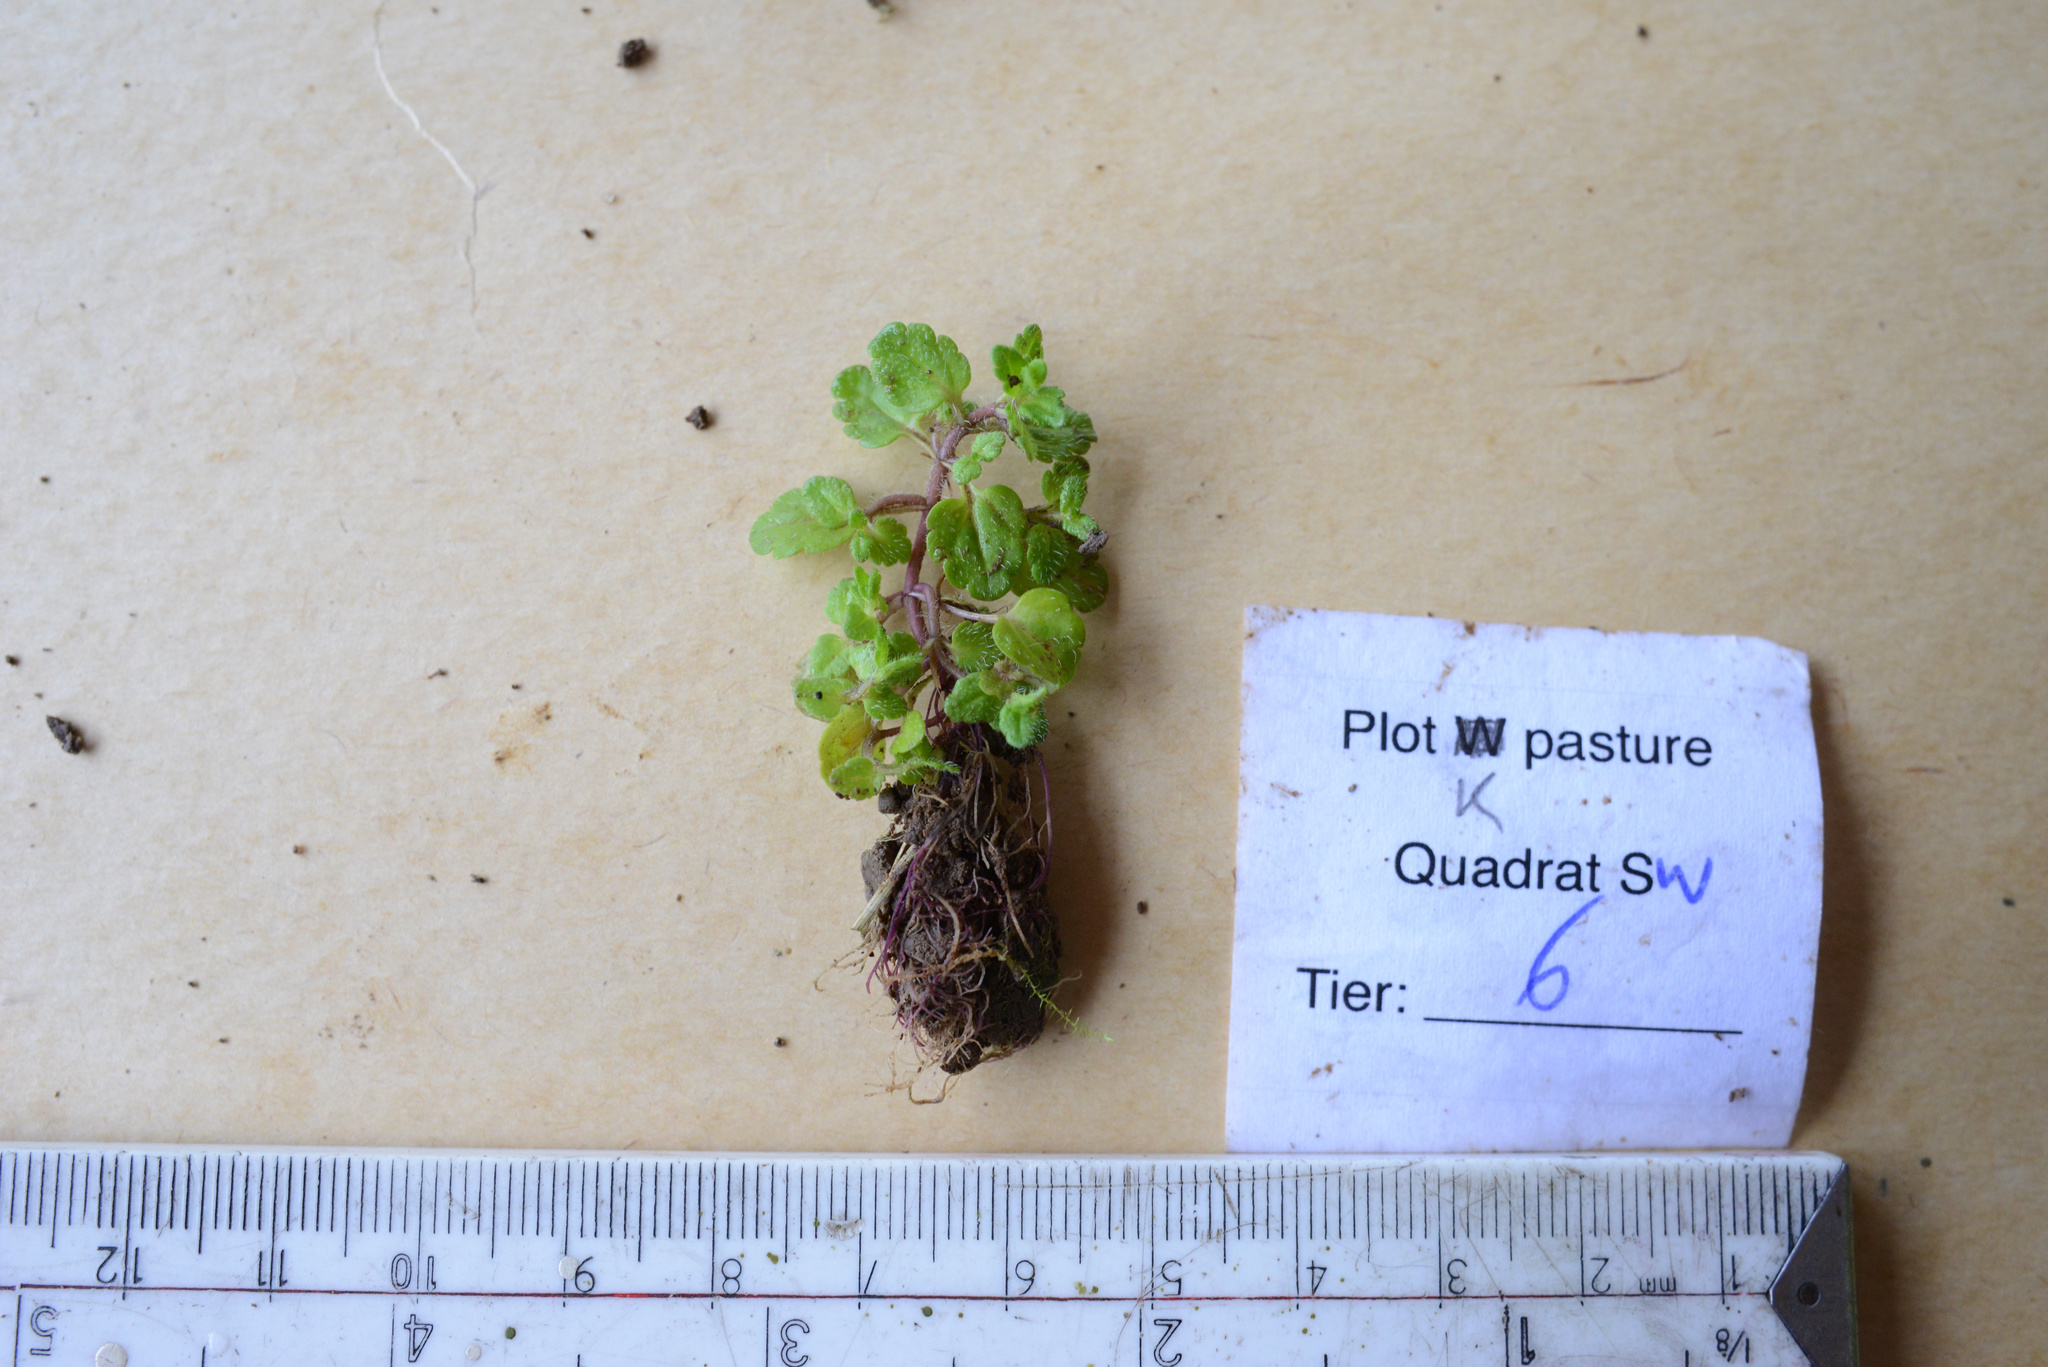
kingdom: Plantae
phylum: Tracheophyta
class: Magnoliopsida
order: Lamiales
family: Plantaginaceae
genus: Veronica
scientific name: Veronica arvensis
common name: Corn speedwell
